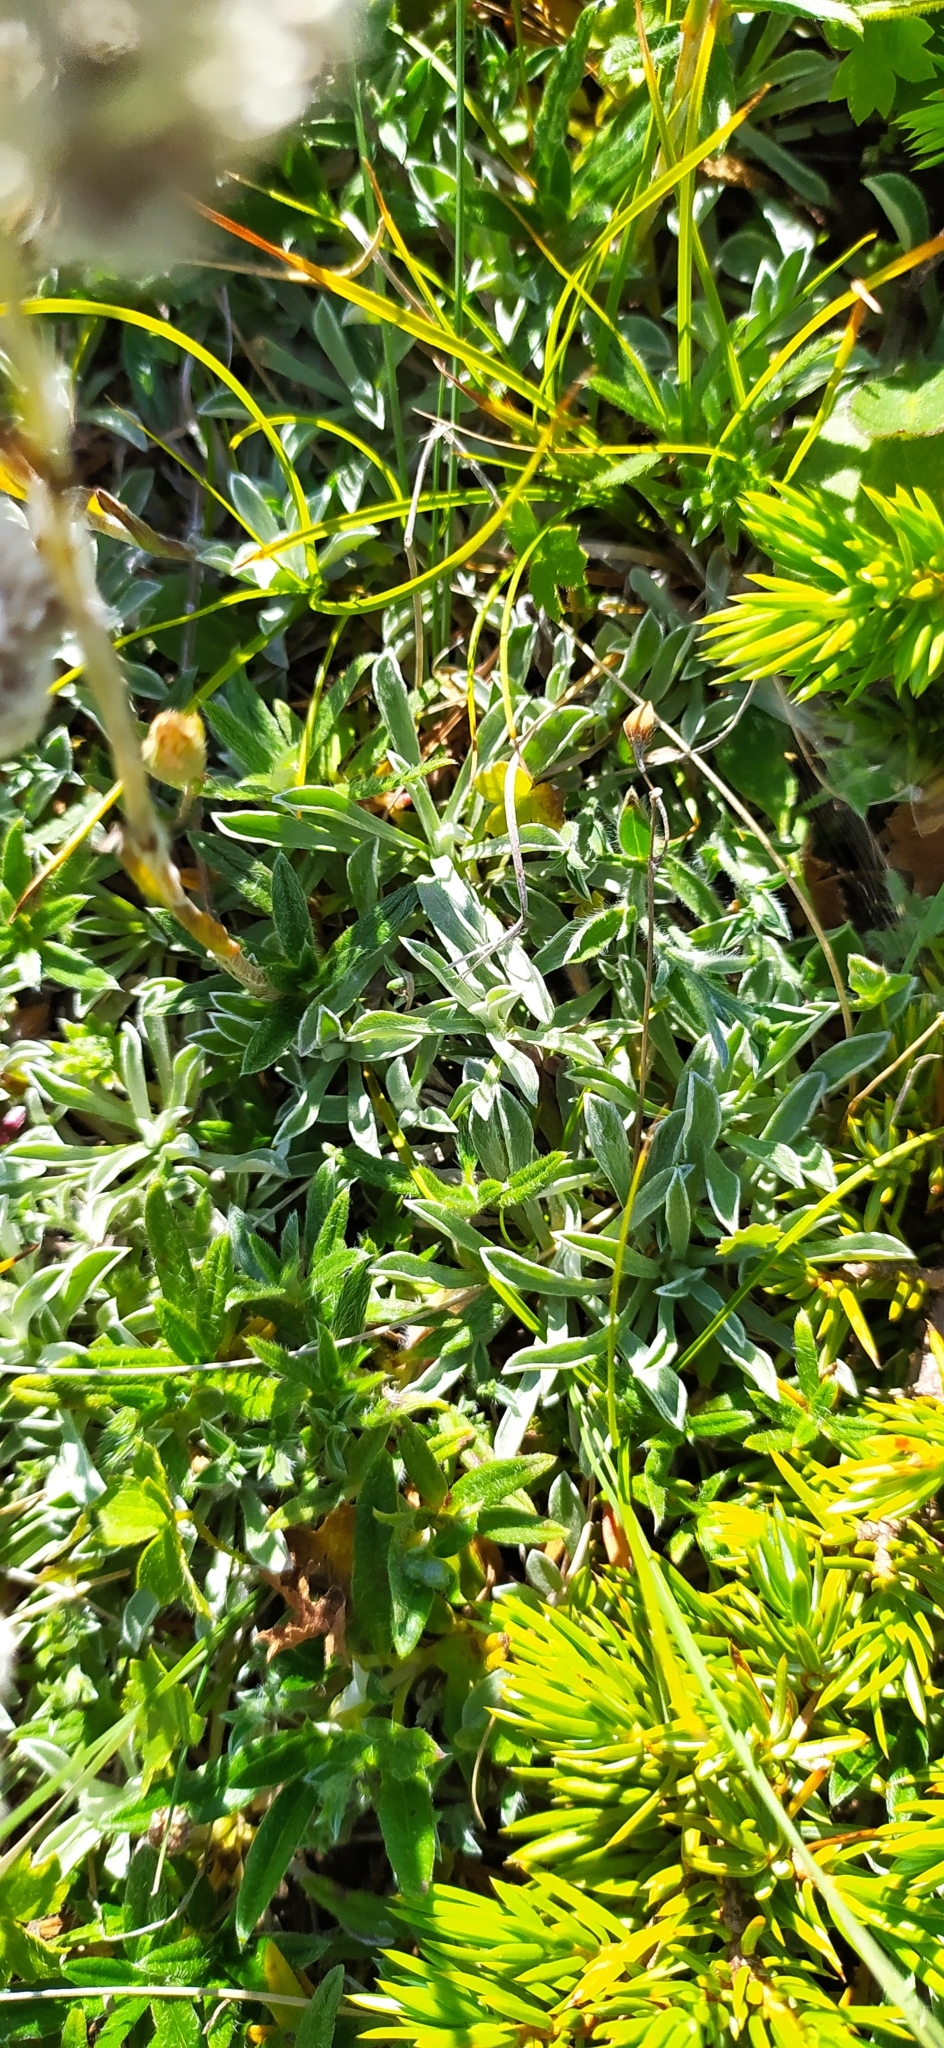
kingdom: Plantae
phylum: Tracheophyta
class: Magnoliopsida
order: Asterales
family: Asteraceae
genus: Antennaria
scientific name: Antennaria dioica
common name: Mountain everlasting
